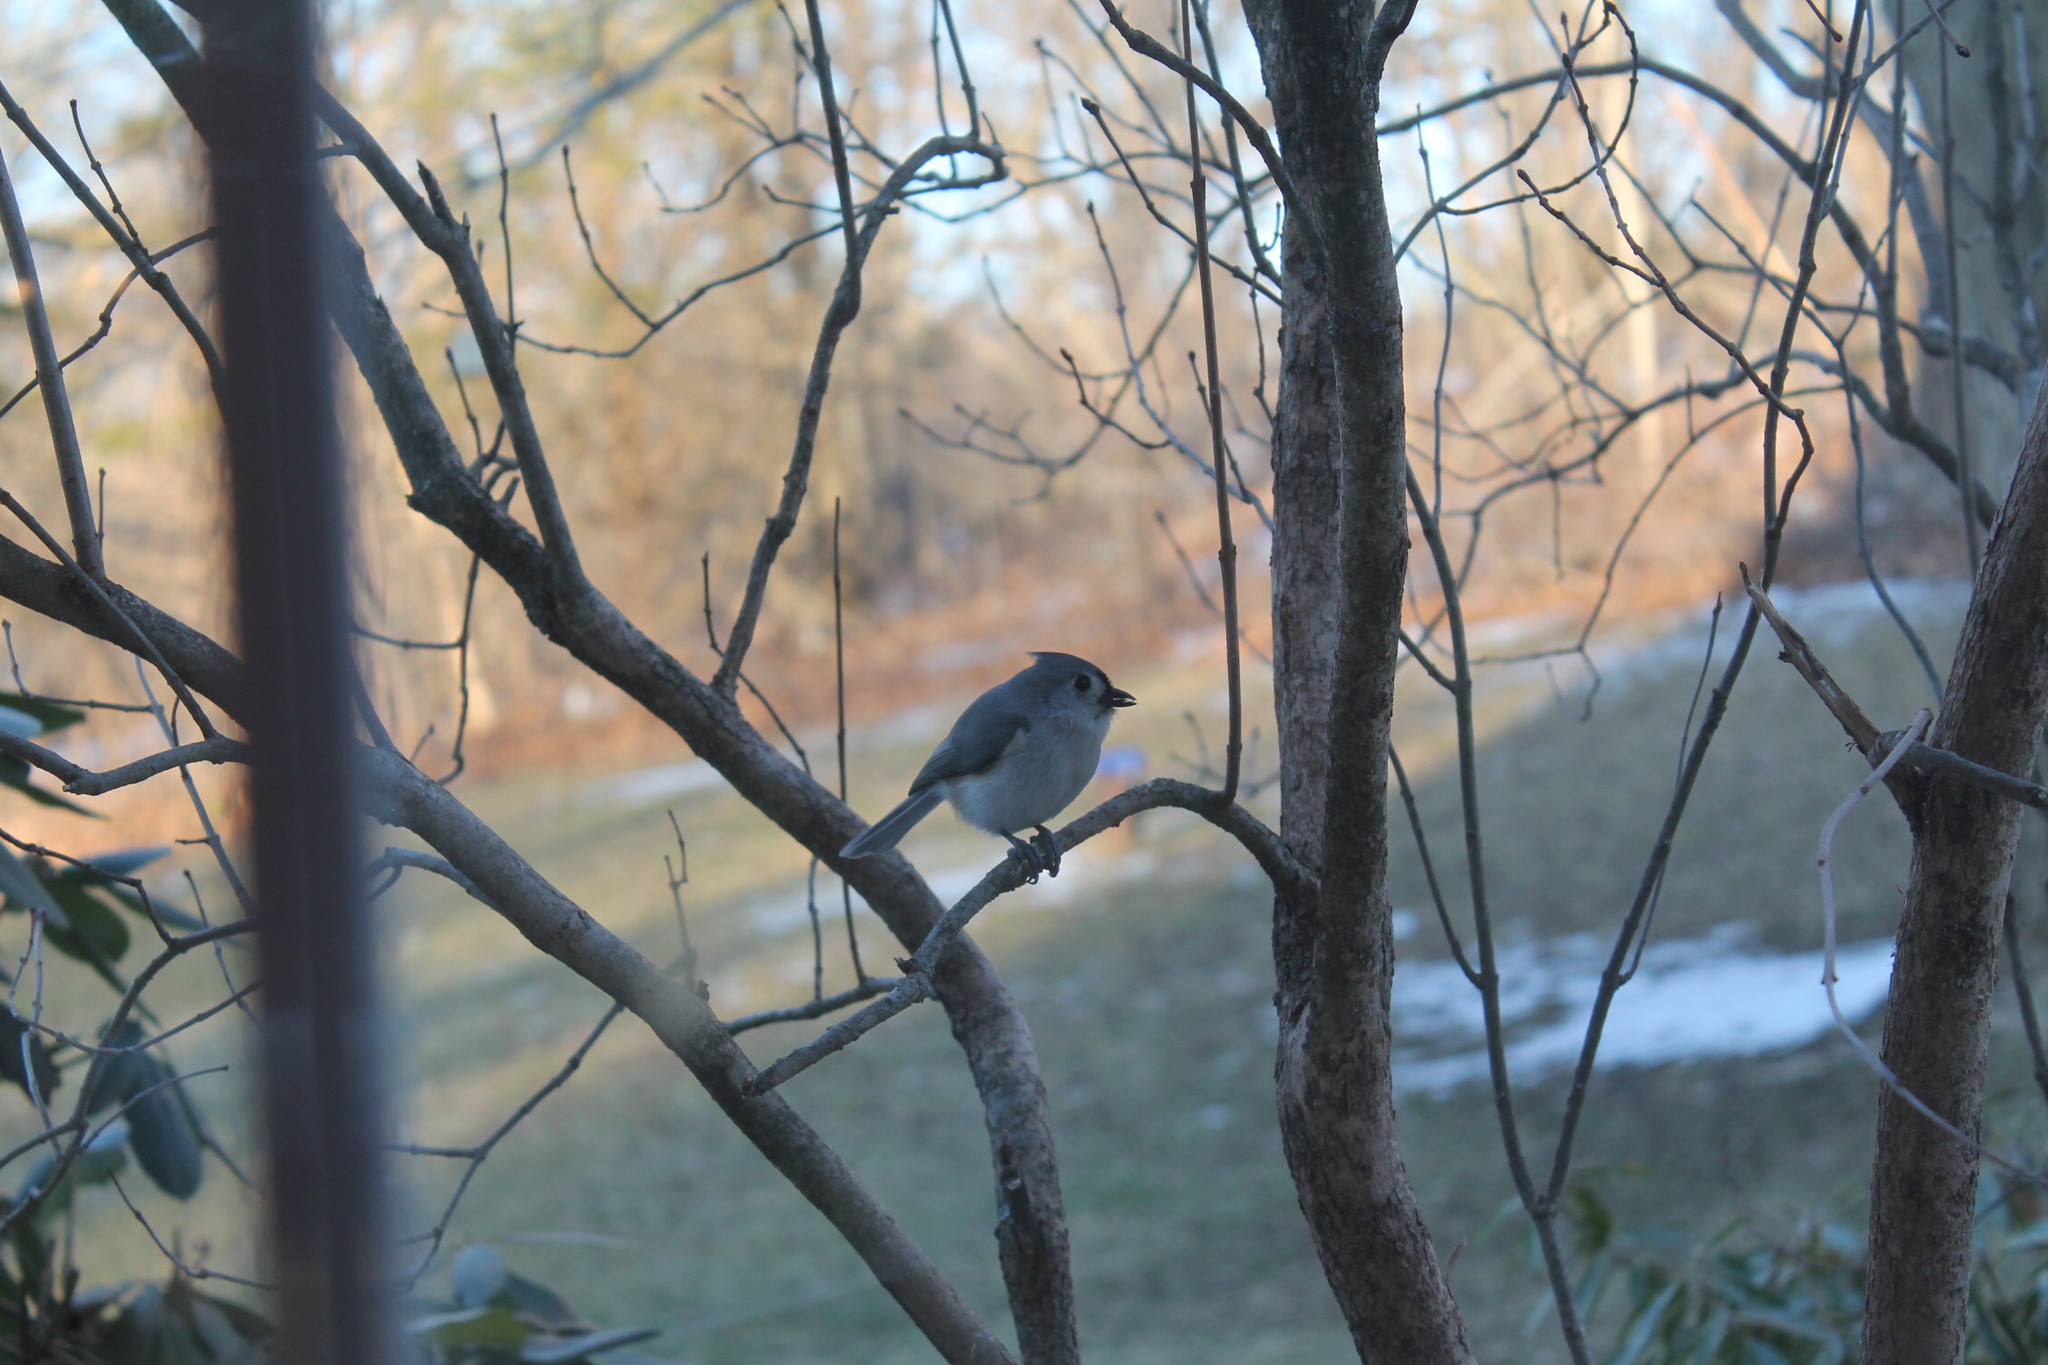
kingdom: Animalia
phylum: Chordata
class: Aves
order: Passeriformes
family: Paridae
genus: Baeolophus
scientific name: Baeolophus bicolor
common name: Tufted titmouse
